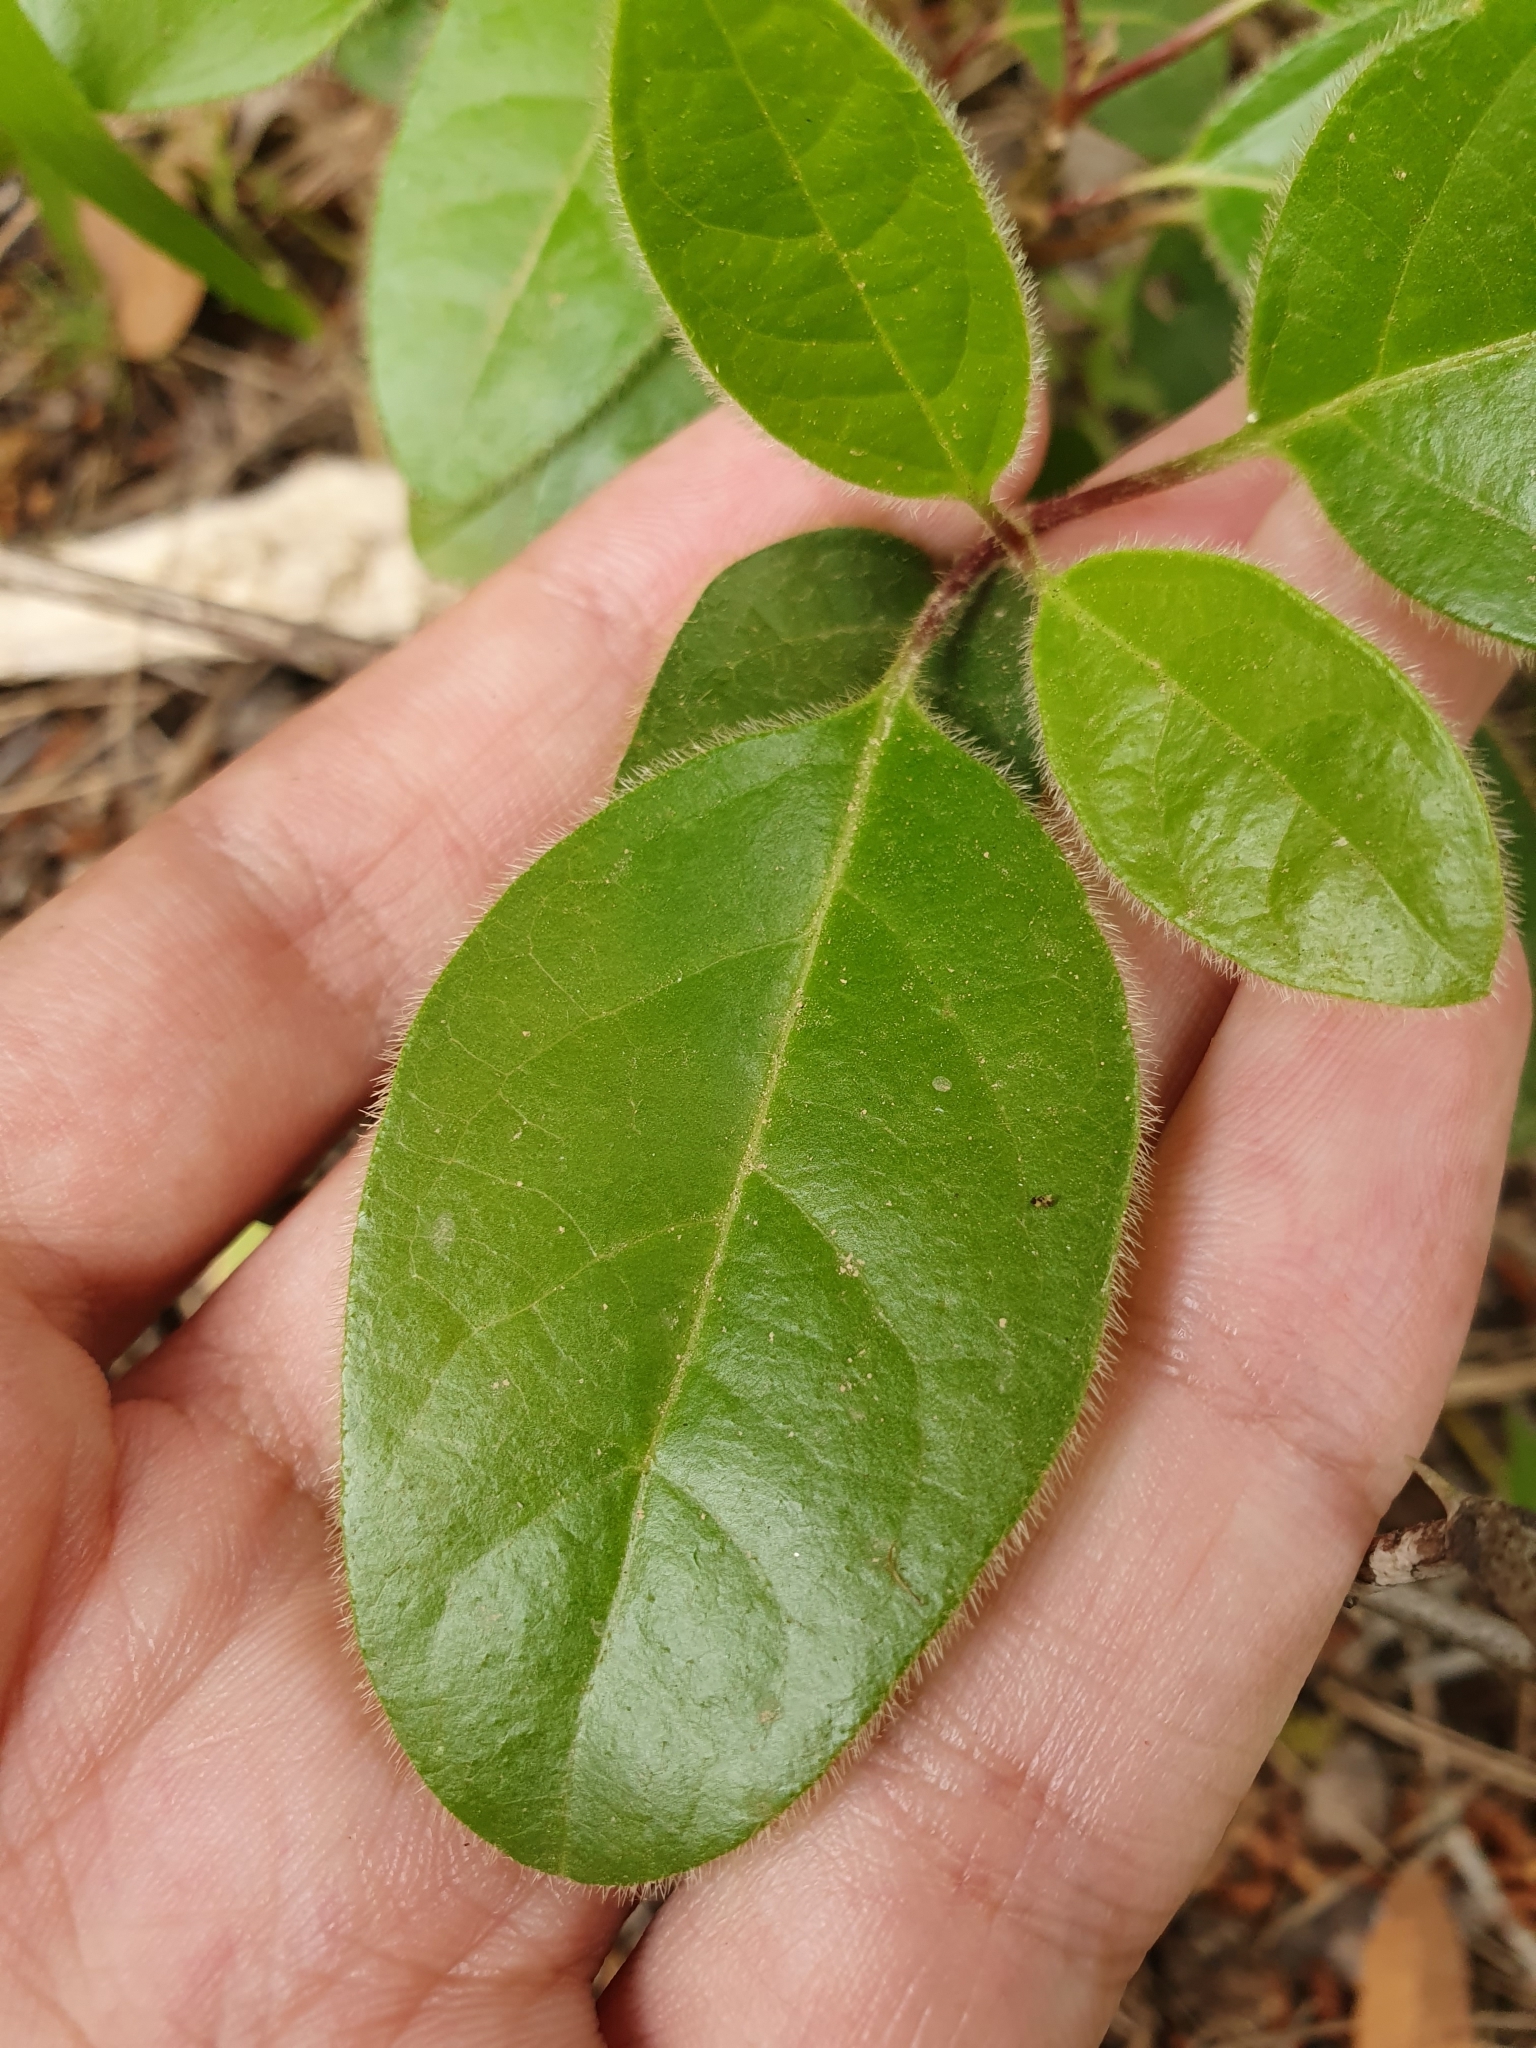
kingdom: Plantae
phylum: Tracheophyta
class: Magnoliopsida
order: Dipsacales
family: Viburnaceae
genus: Viburnum
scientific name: Viburnum tinus
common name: Laurustinus
